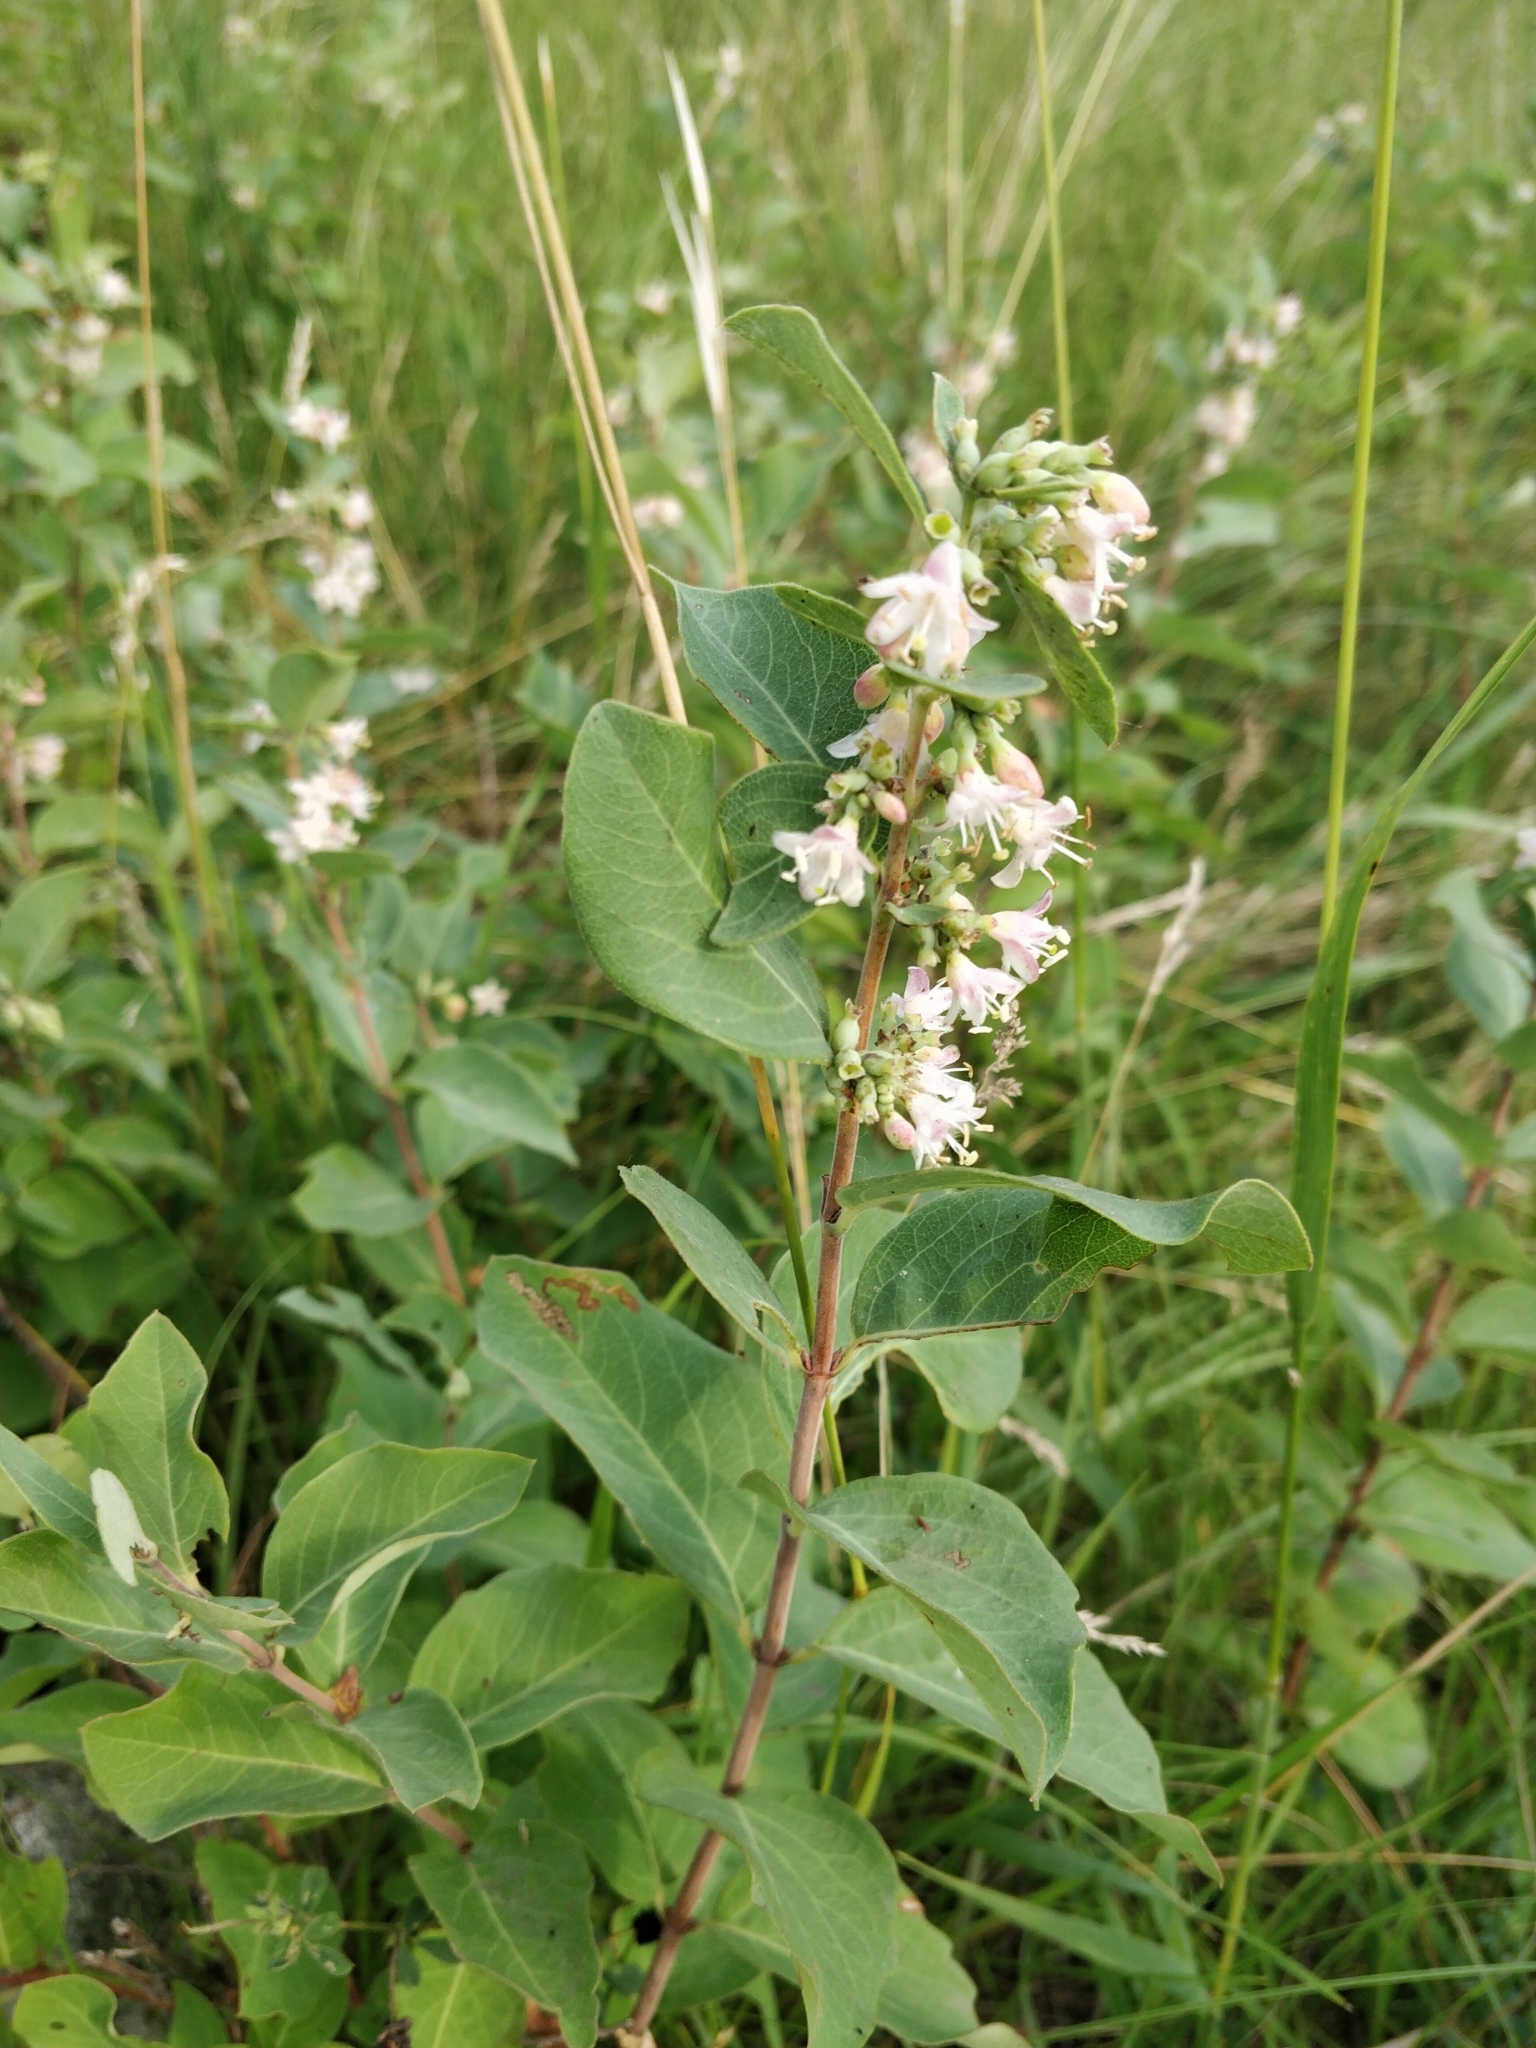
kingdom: Plantae
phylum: Tracheophyta
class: Magnoliopsida
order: Dipsacales
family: Caprifoliaceae
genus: Symphoricarpos
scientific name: Symphoricarpos occidentalis
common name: Wolfberry
